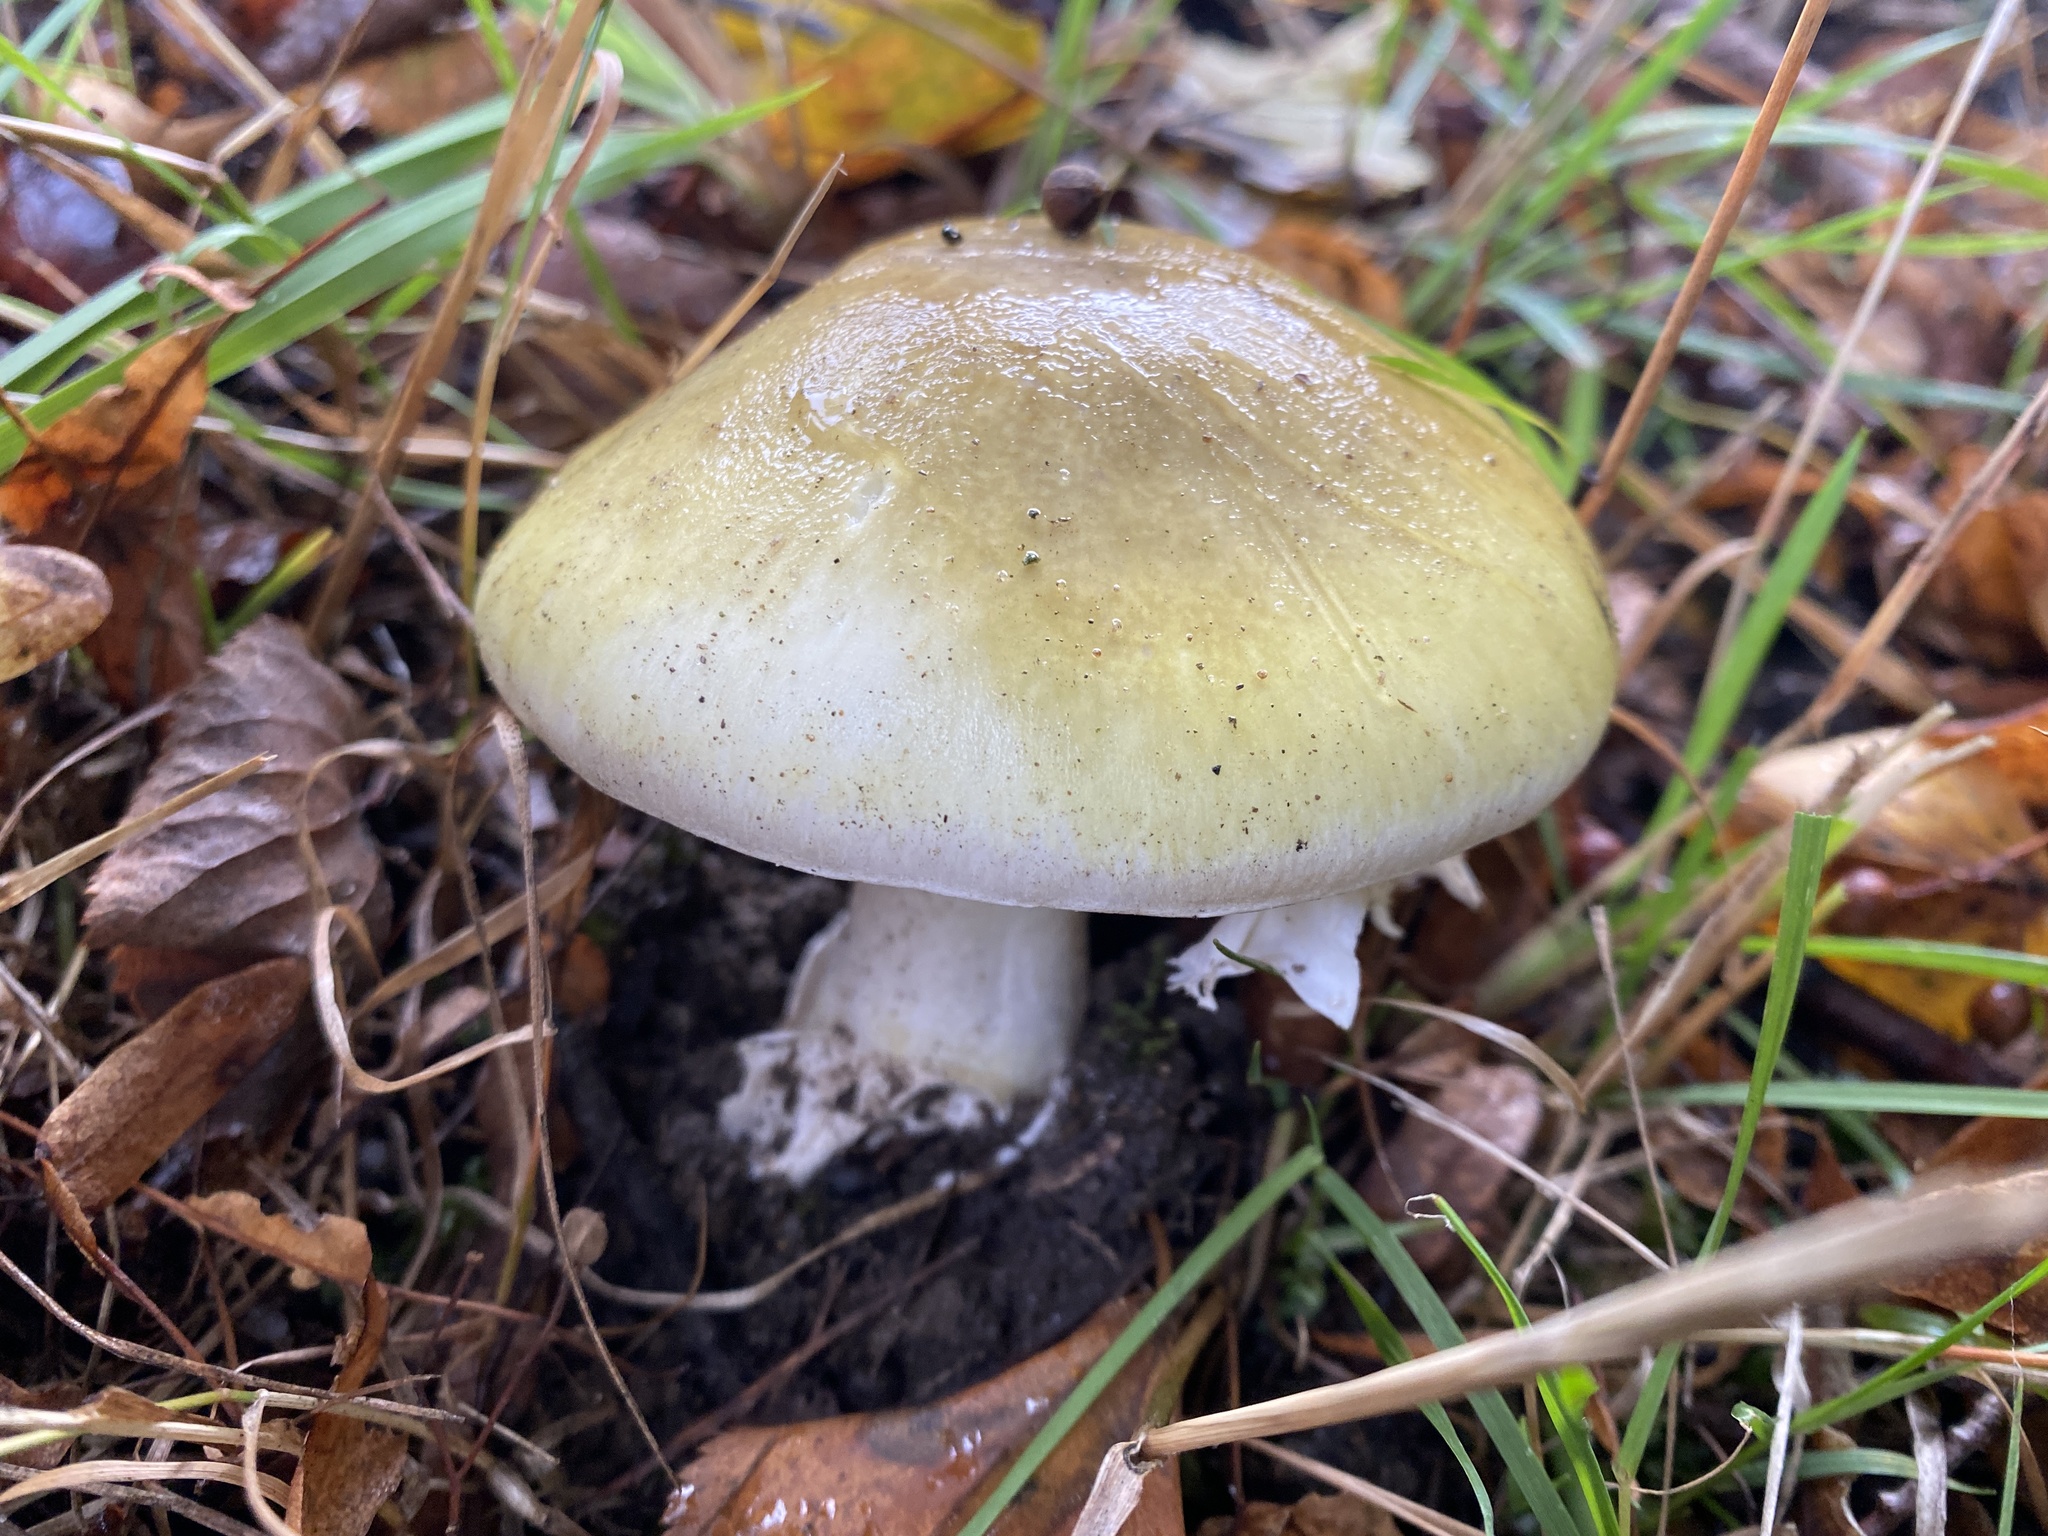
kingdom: Fungi
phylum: Basidiomycota
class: Agaricomycetes
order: Agaricales
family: Amanitaceae
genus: Amanita
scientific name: Amanita phalloides
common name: Death cap
